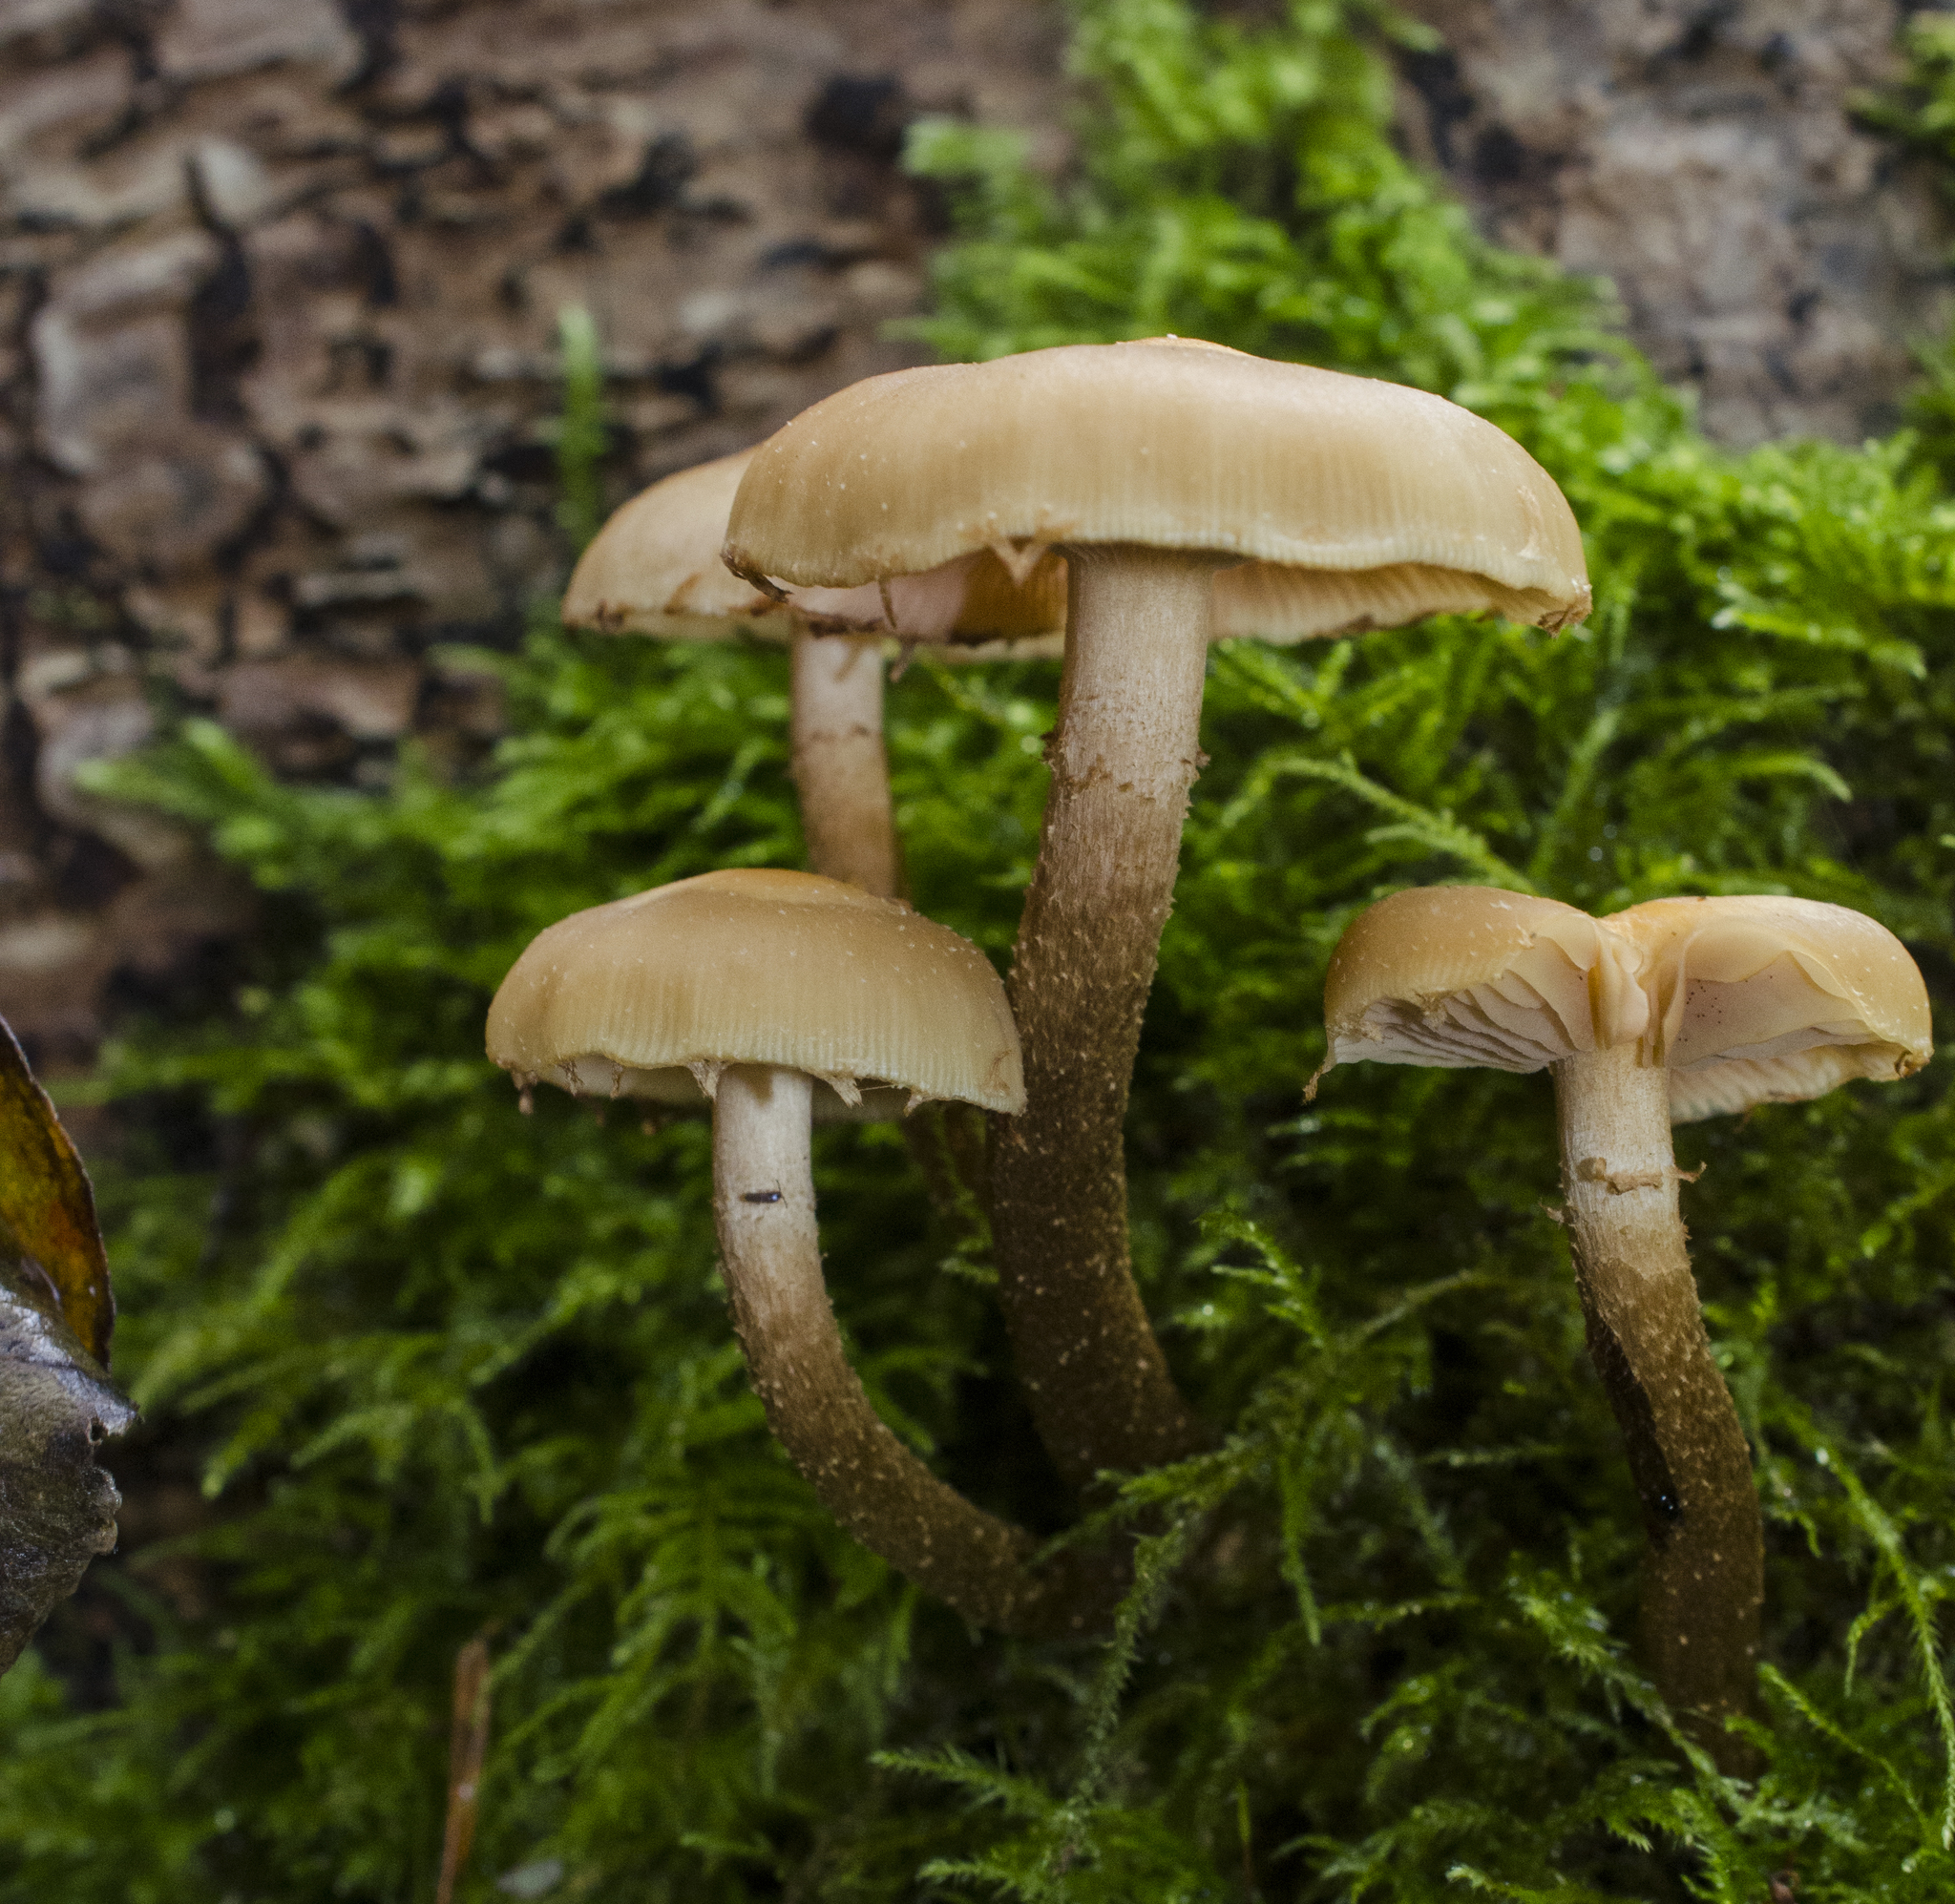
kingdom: Fungi
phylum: Basidiomycota
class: Agaricomycetes
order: Agaricales
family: Strophariaceae
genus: Kuehneromyces
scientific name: Kuehneromyces mutabilis
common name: Sheathed woodtuft
